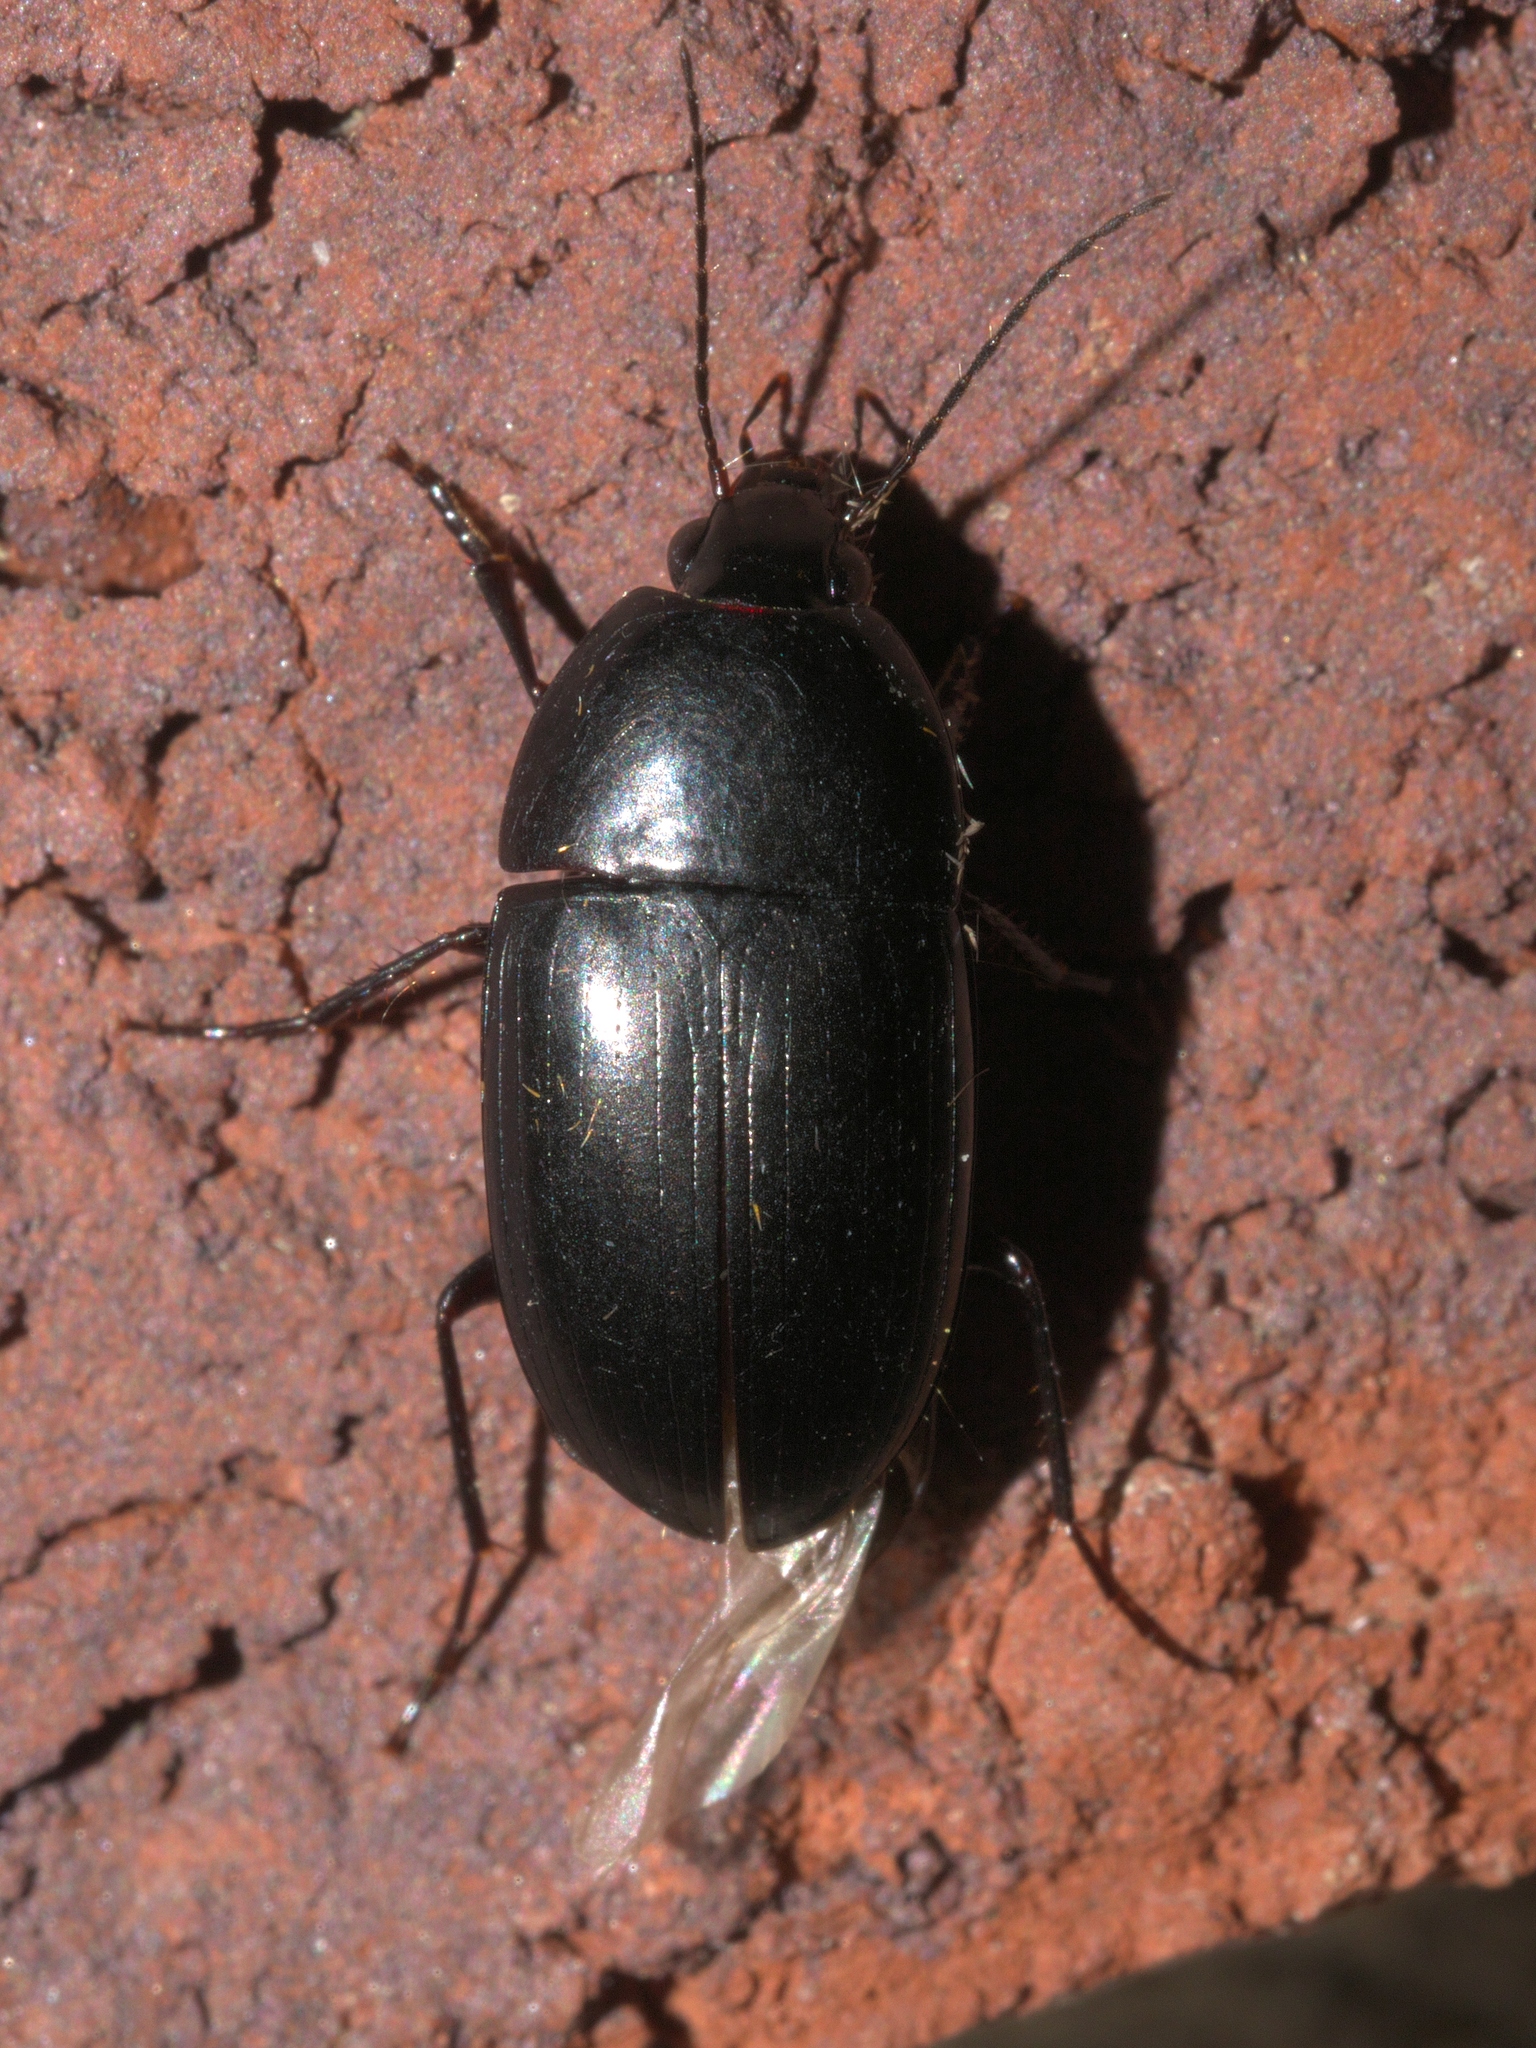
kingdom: Animalia
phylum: Arthropoda
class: Insecta
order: Coleoptera
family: Carabidae
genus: Oodes
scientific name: Oodes amaroides
